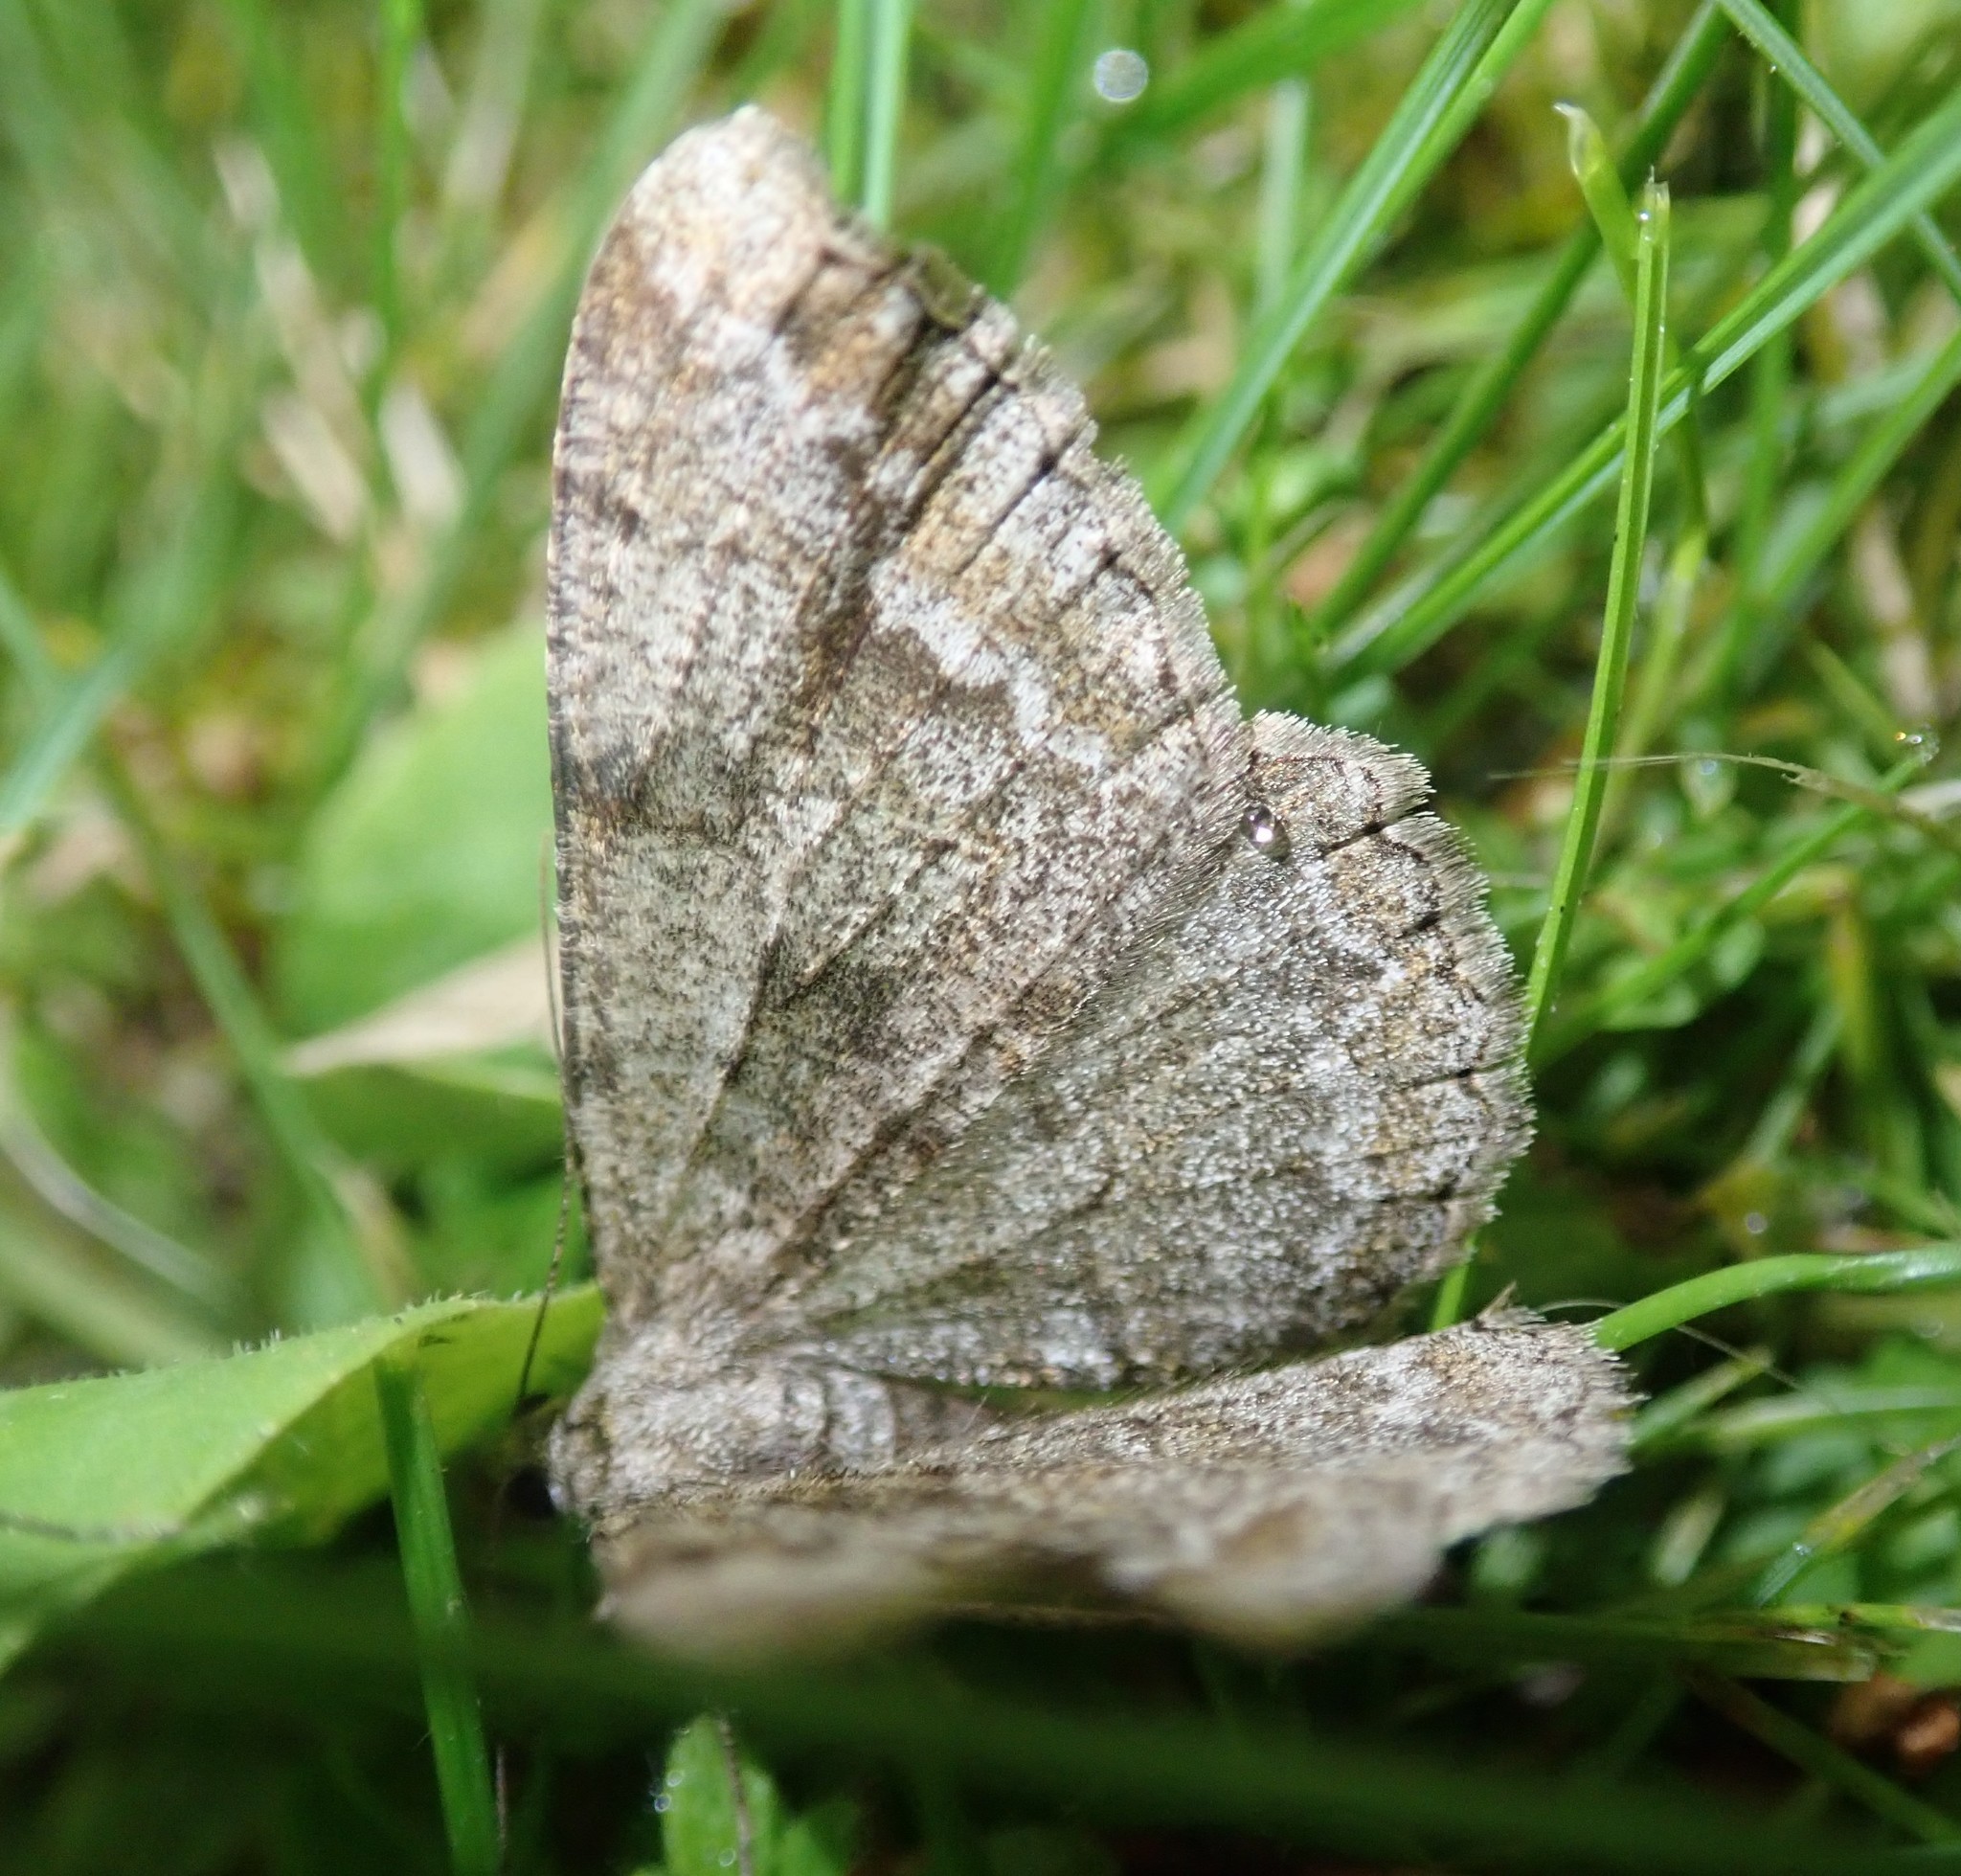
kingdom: Animalia
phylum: Arthropoda
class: Insecta
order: Lepidoptera
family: Geometridae
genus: Alcis
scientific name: Alcis repandata
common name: Mottled beauty
